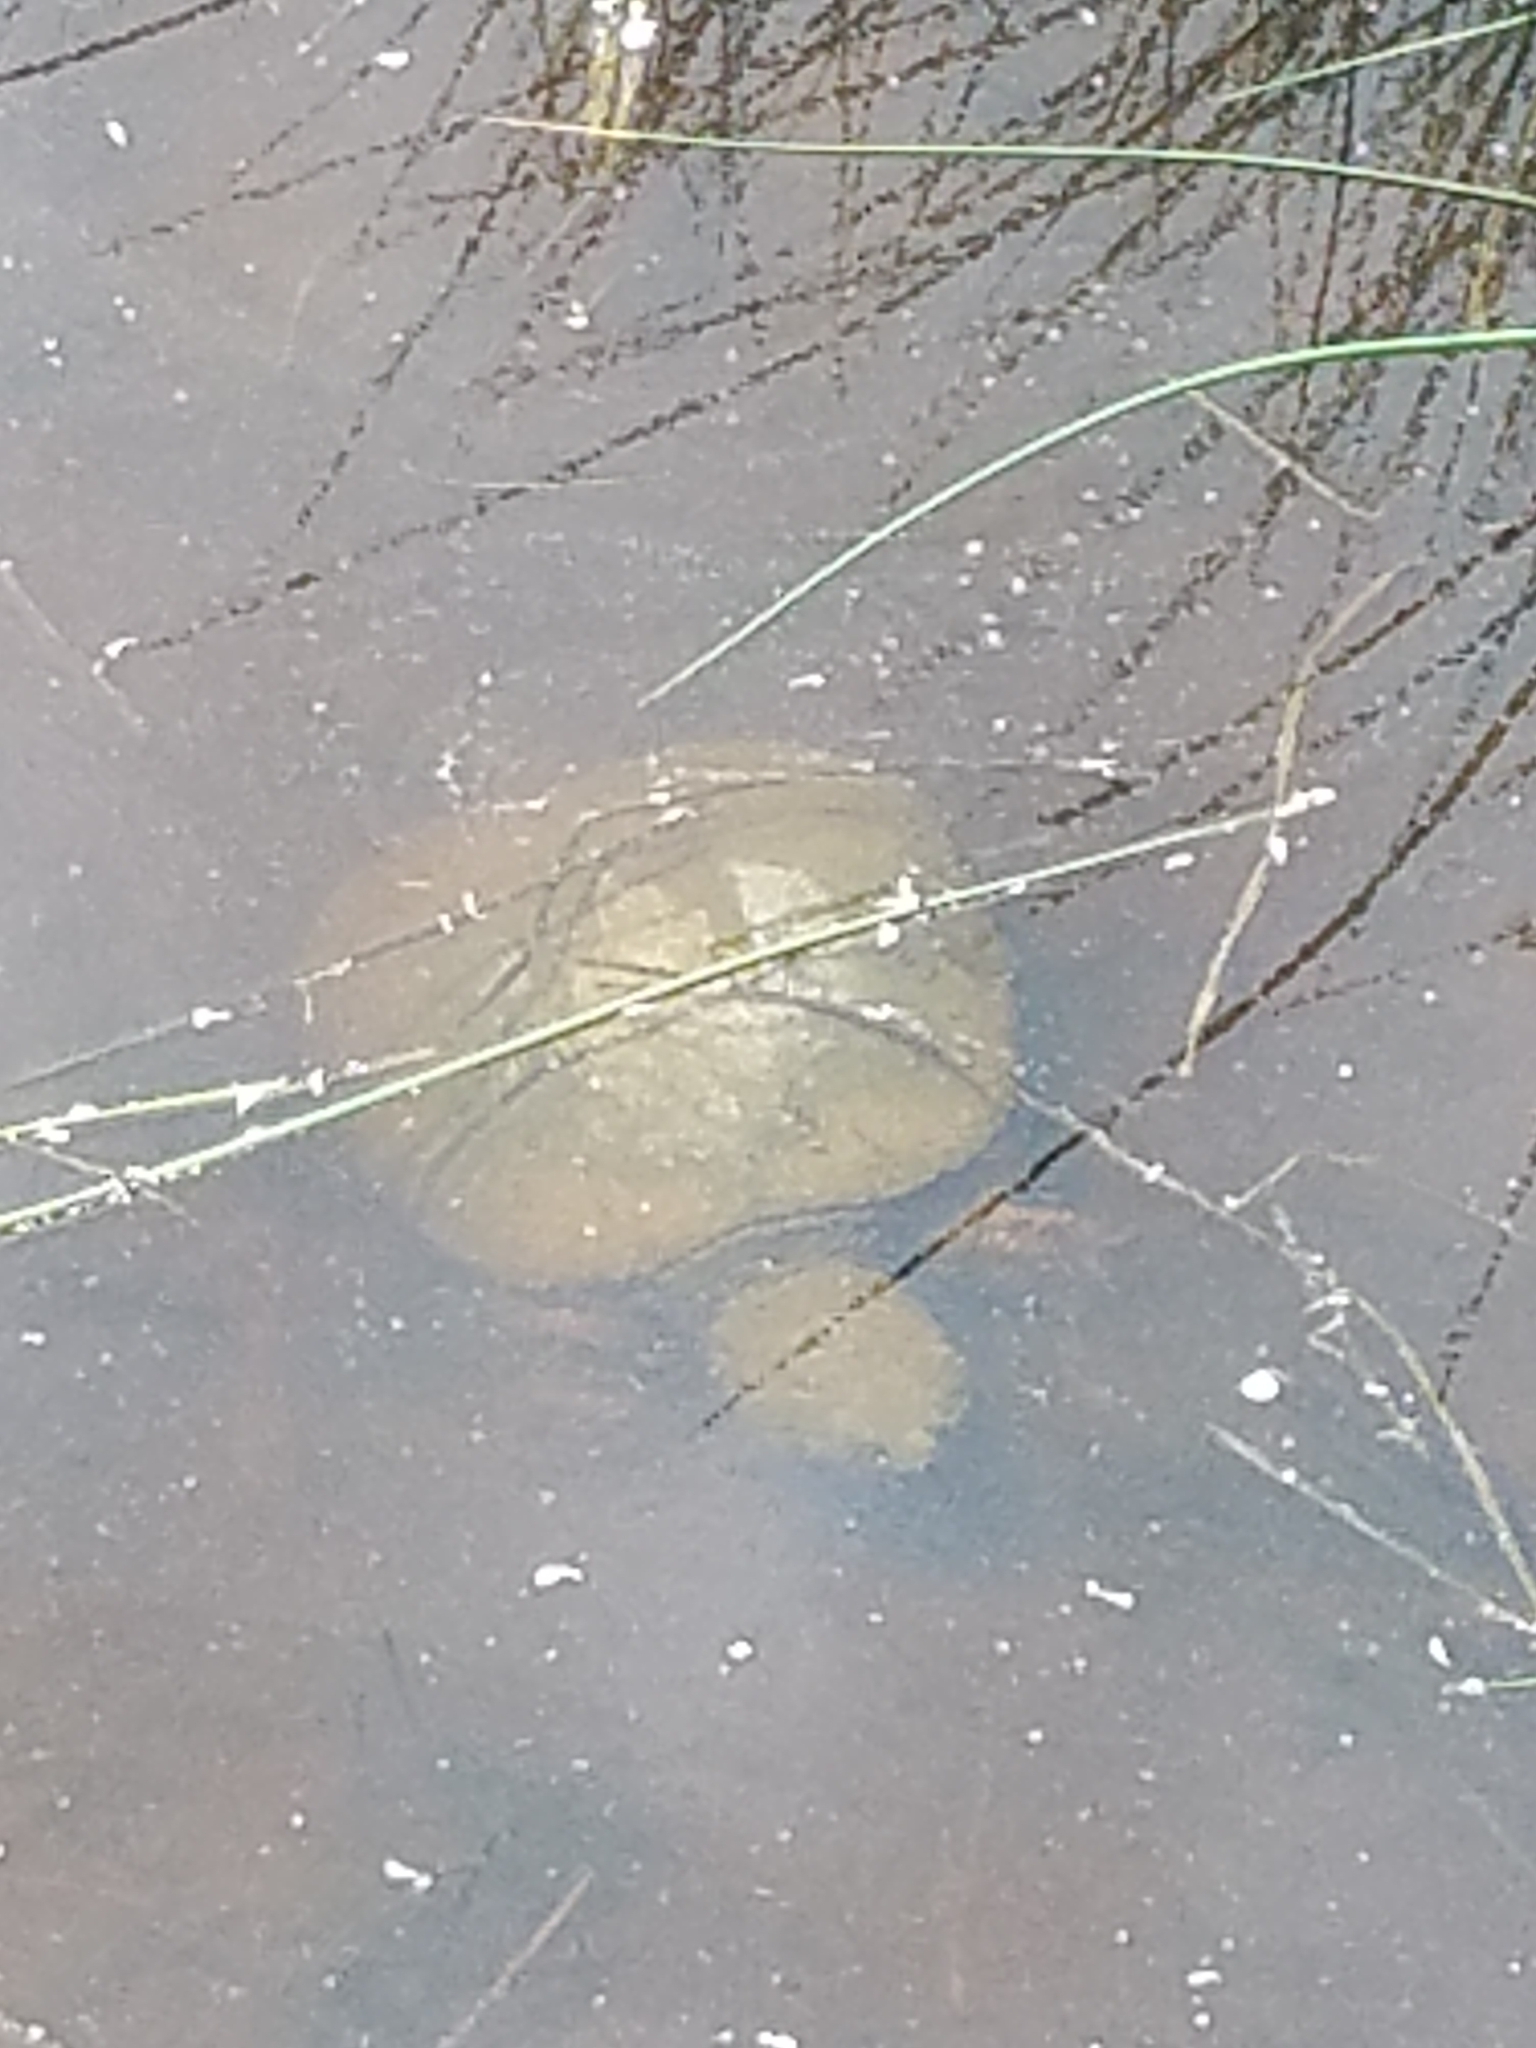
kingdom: Animalia
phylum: Chordata
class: Testudines
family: Chelydridae
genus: Chelydra
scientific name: Chelydra serpentina
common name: Common snapping turtle
